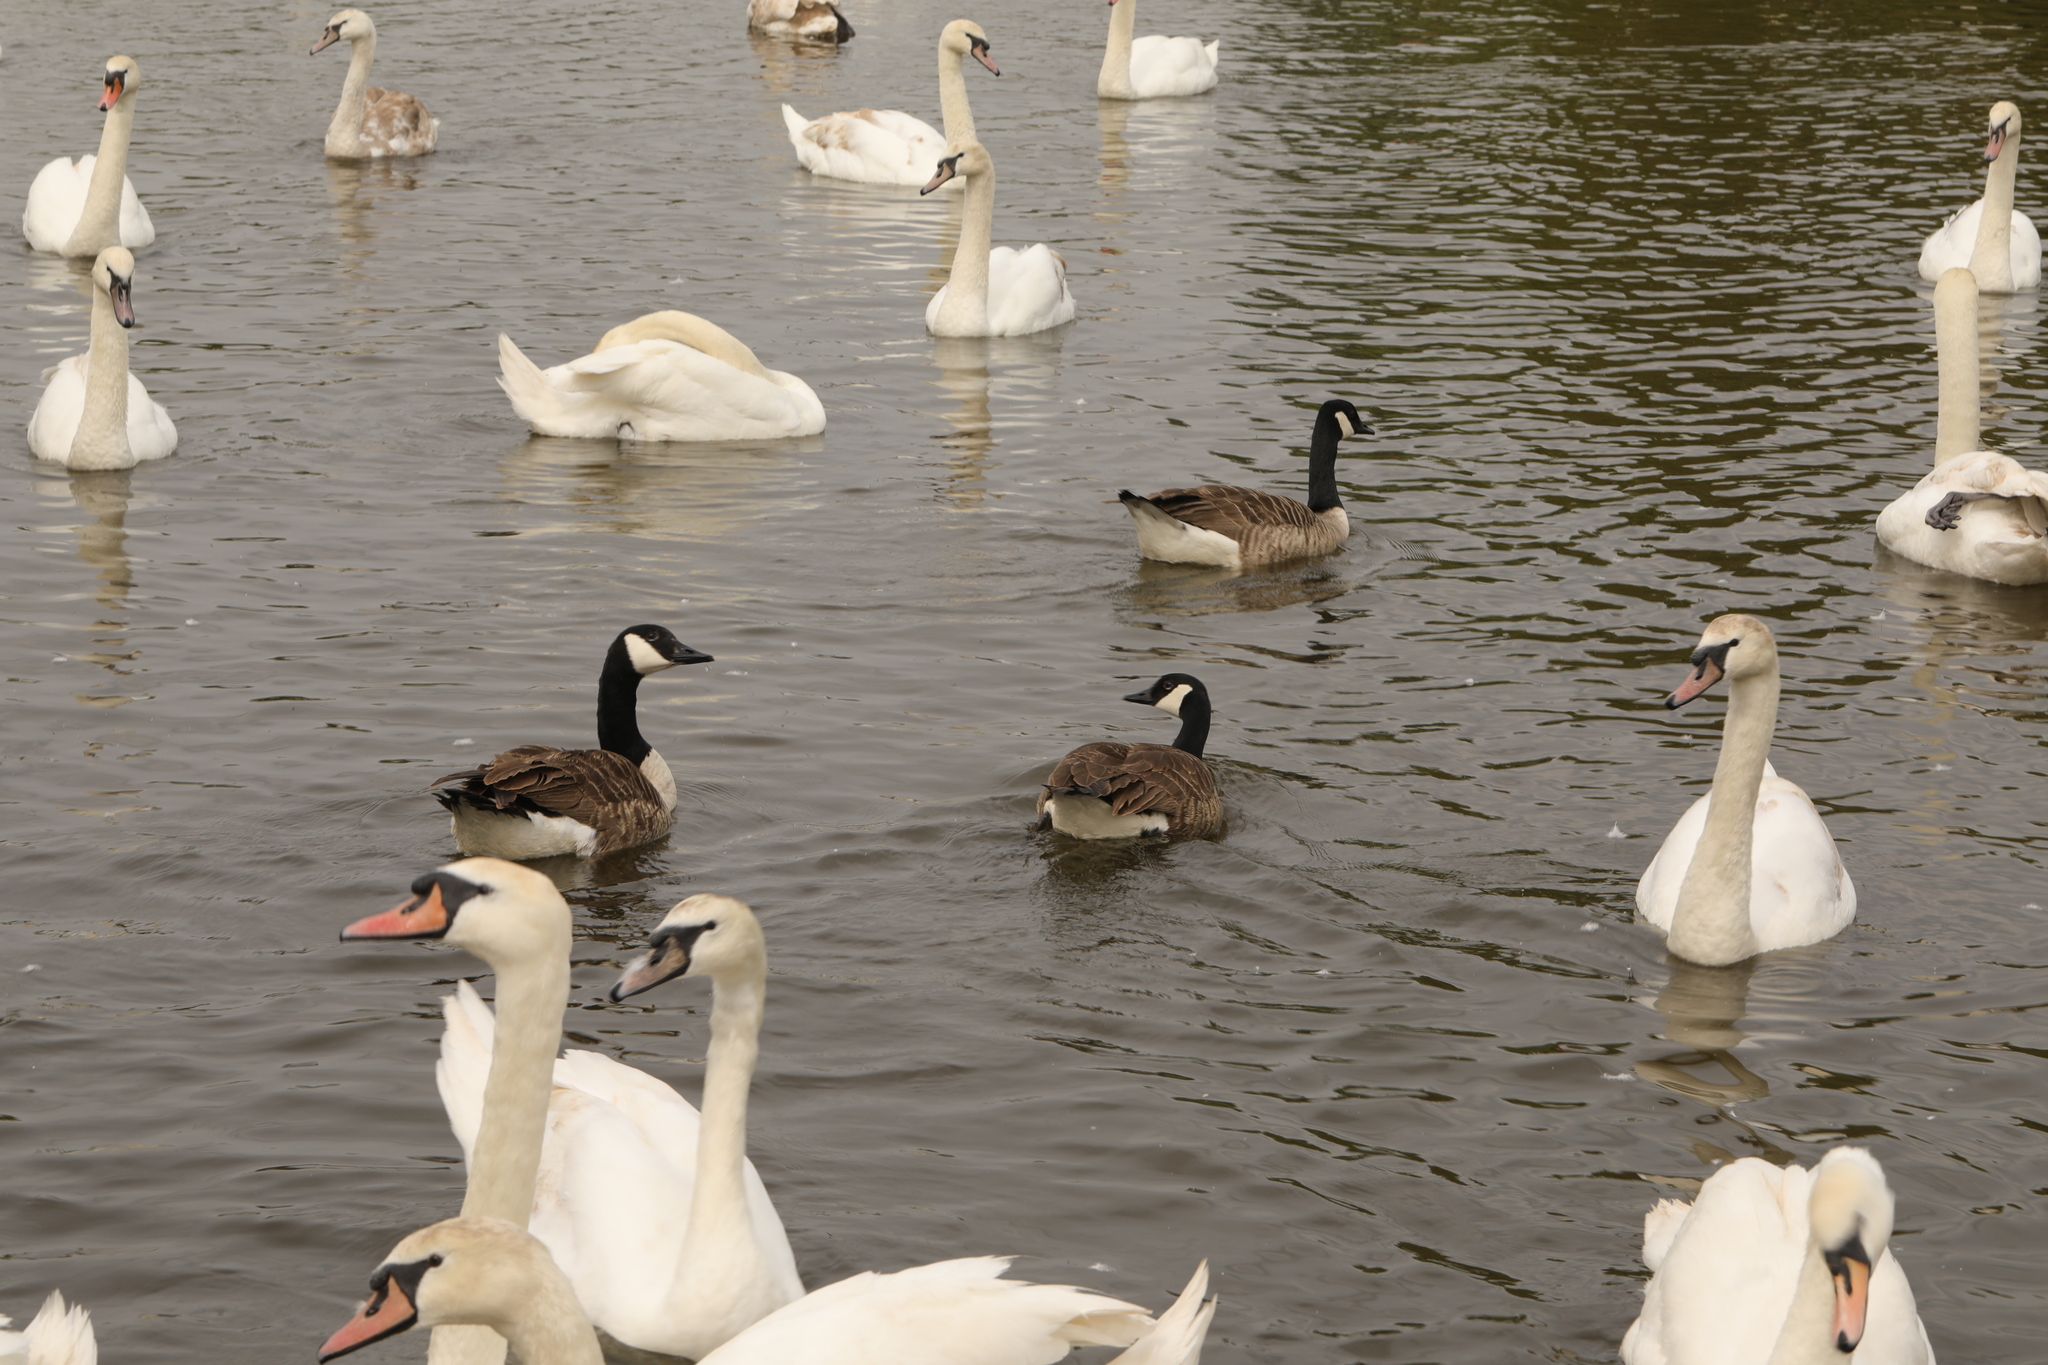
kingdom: Animalia
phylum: Chordata
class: Aves
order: Anseriformes
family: Anatidae
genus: Branta
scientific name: Branta canadensis
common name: Canada goose
